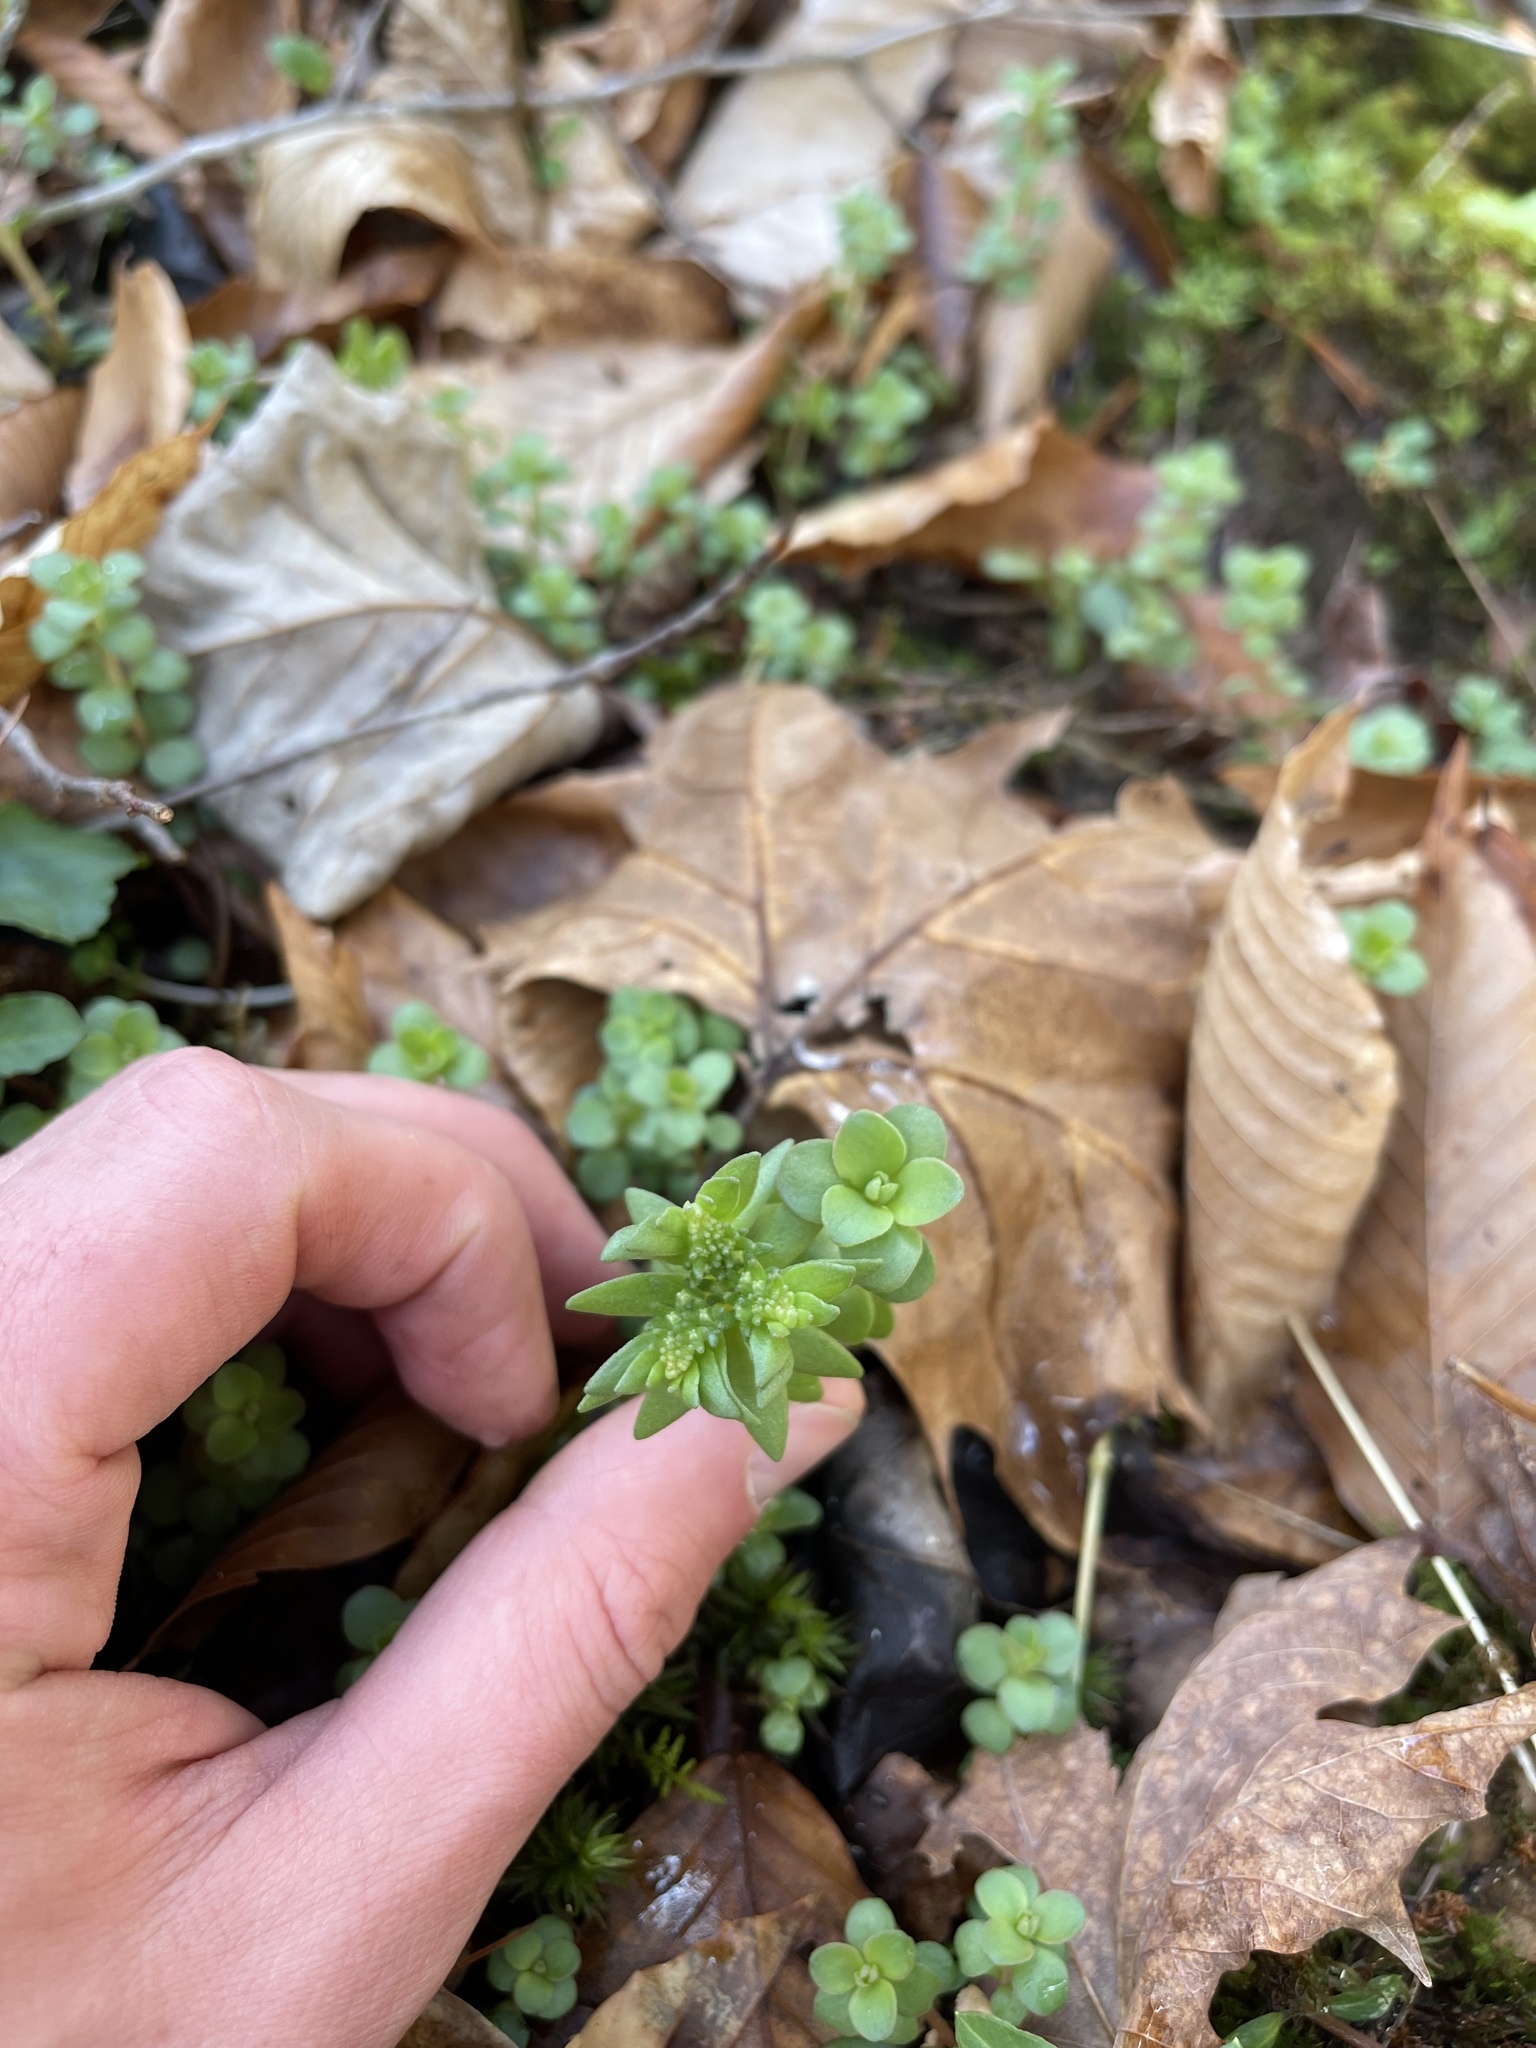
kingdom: Plantae
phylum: Tracheophyta
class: Magnoliopsida
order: Saxifragales
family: Crassulaceae
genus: Sedum
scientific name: Sedum ternatum
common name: Wild stonecrop
